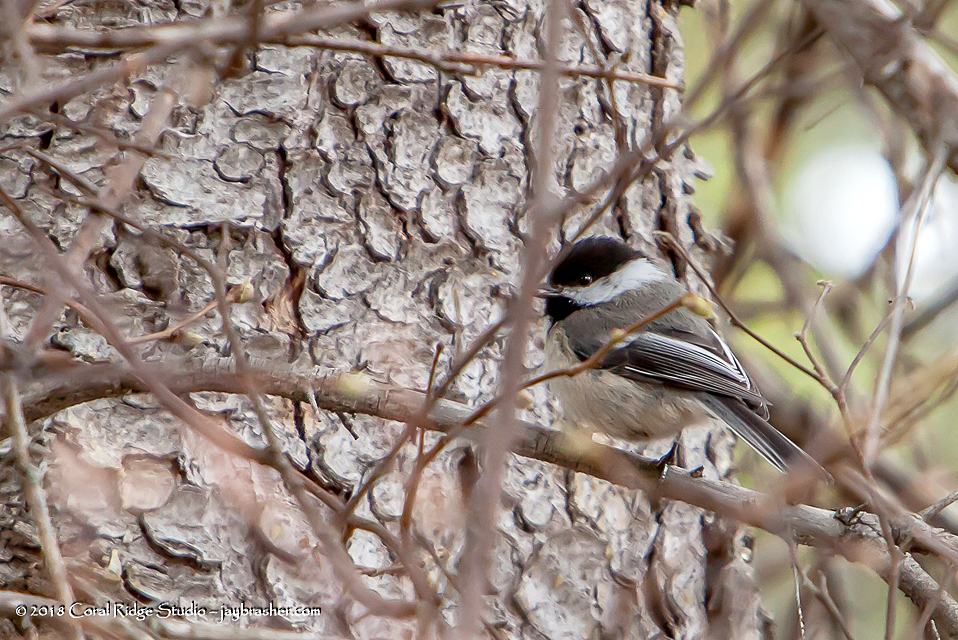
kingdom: Animalia
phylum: Chordata
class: Aves
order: Passeriformes
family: Paridae
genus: Poecile
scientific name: Poecile atricapillus
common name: Black-capped chickadee
